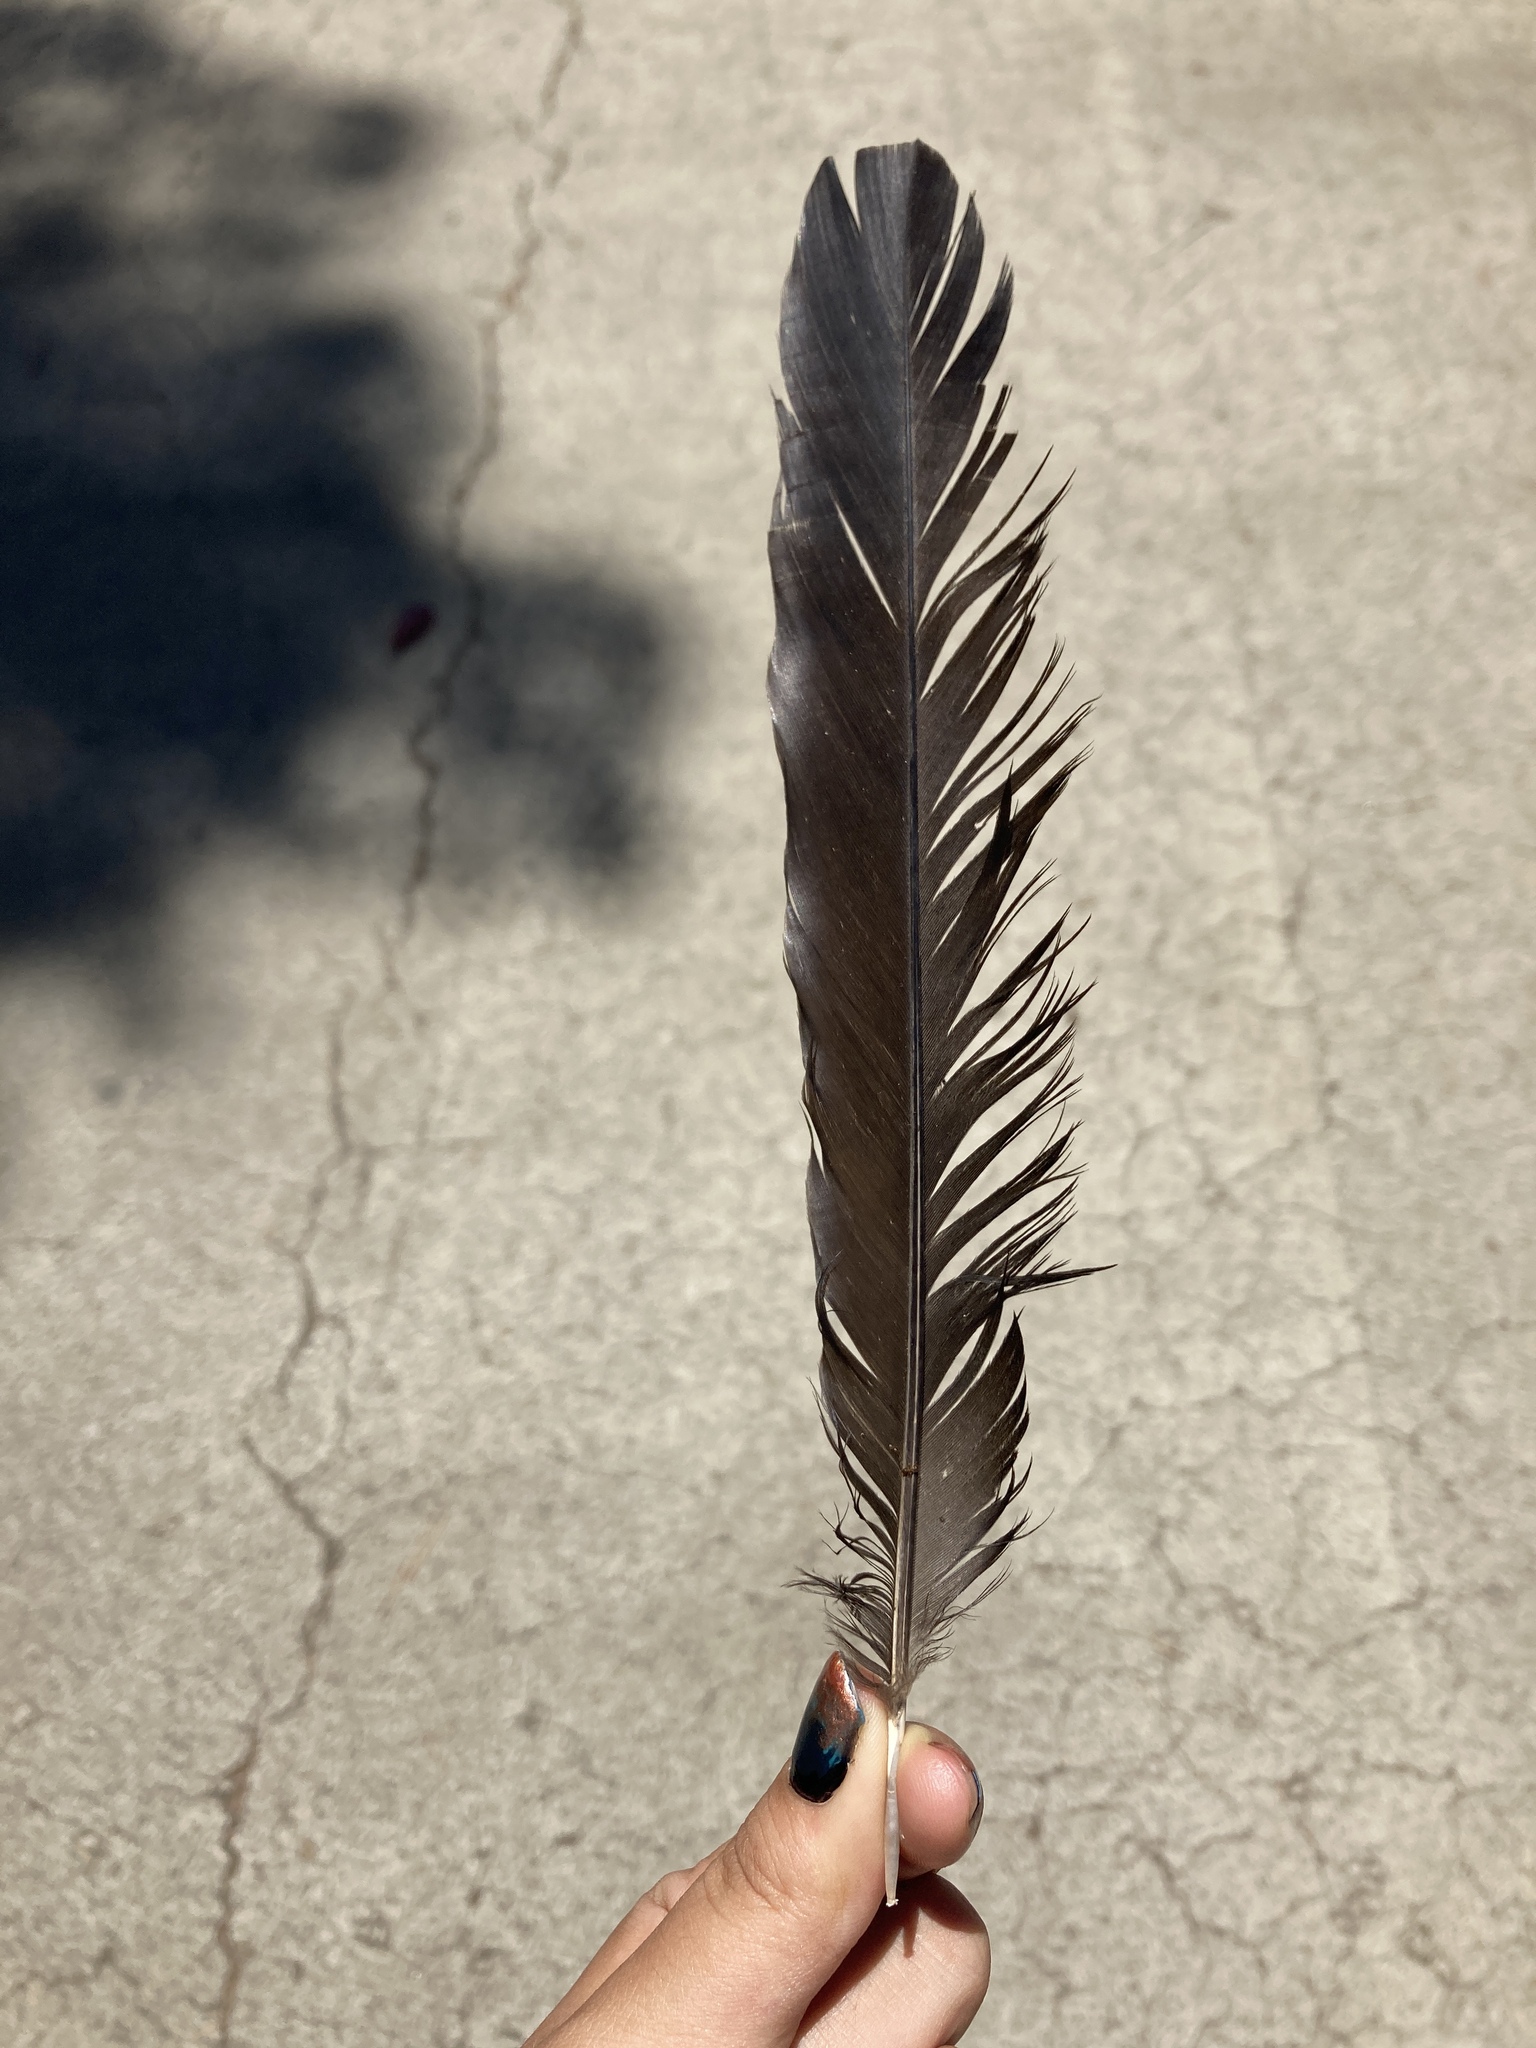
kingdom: Animalia
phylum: Chordata
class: Aves
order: Passeriformes
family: Corvidae
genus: Pica
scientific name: Pica pica
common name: Eurasian magpie
